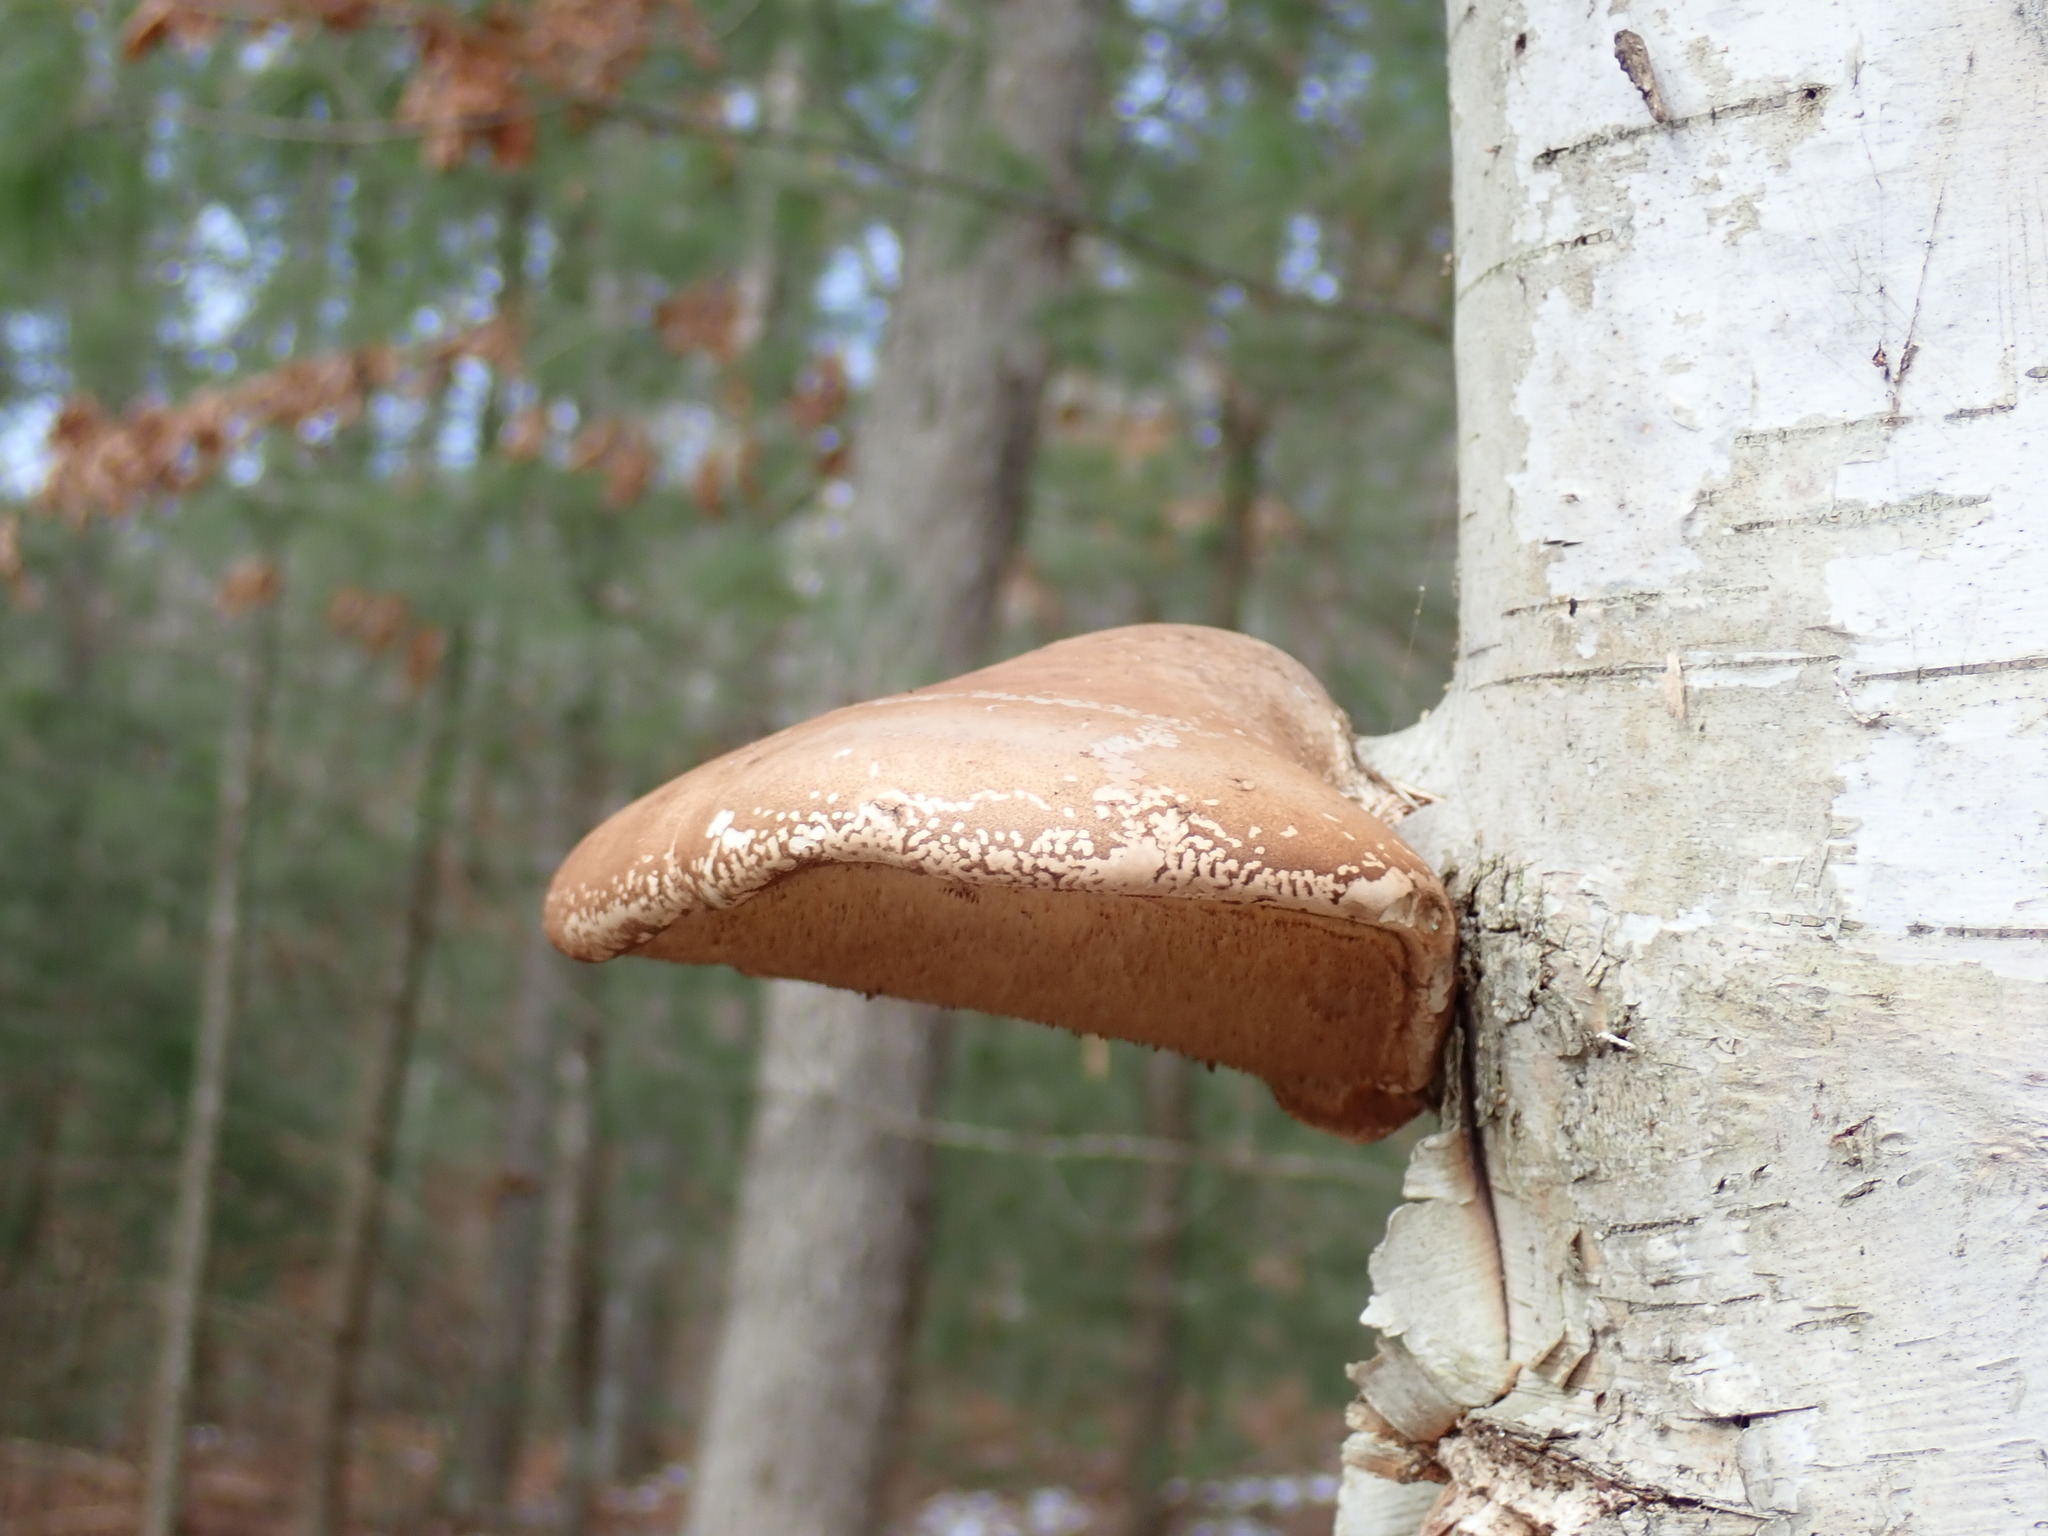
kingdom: Fungi
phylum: Basidiomycota
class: Agaricomycetes
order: Polyporales
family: Fomitopsidaceae
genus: Fomitopsis
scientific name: Fomitopsis betulina
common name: Birch polypore
